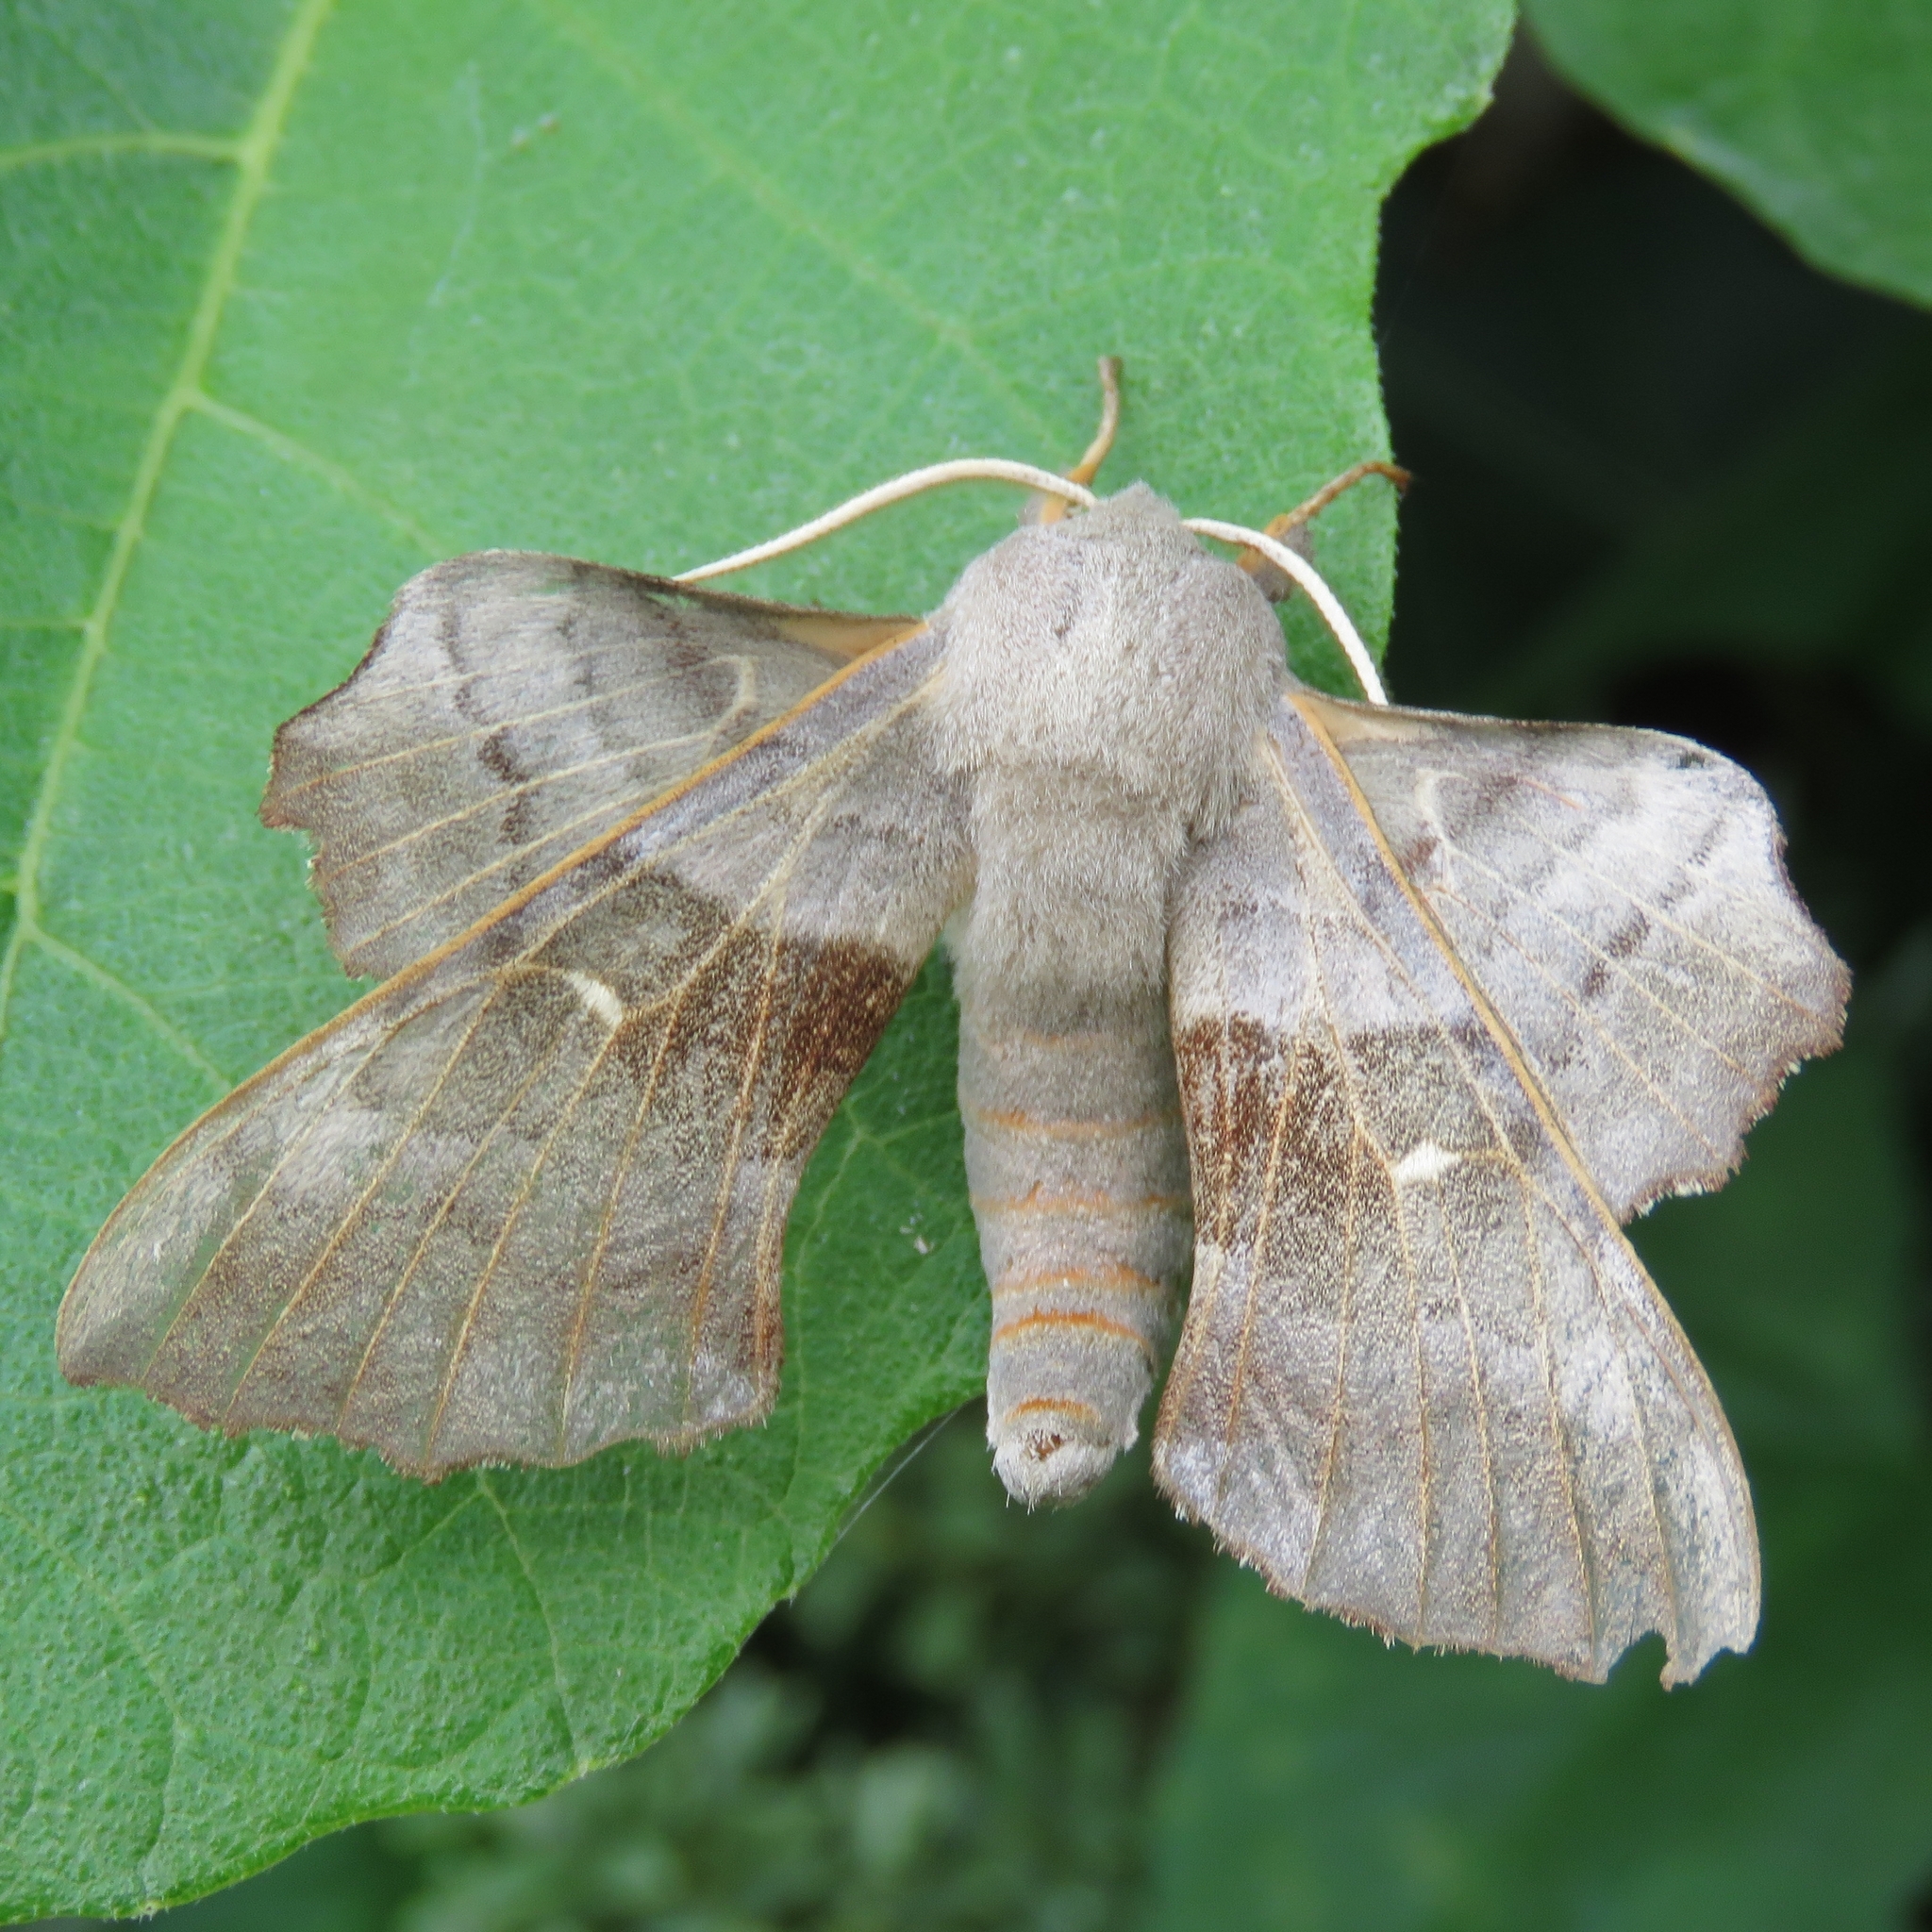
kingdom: Animalia
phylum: Arthropoda
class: Insecta
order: Lepidoptera
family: Sphingidae
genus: Laothoe
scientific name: Laothoe populi
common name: Poplar hawk-moth
